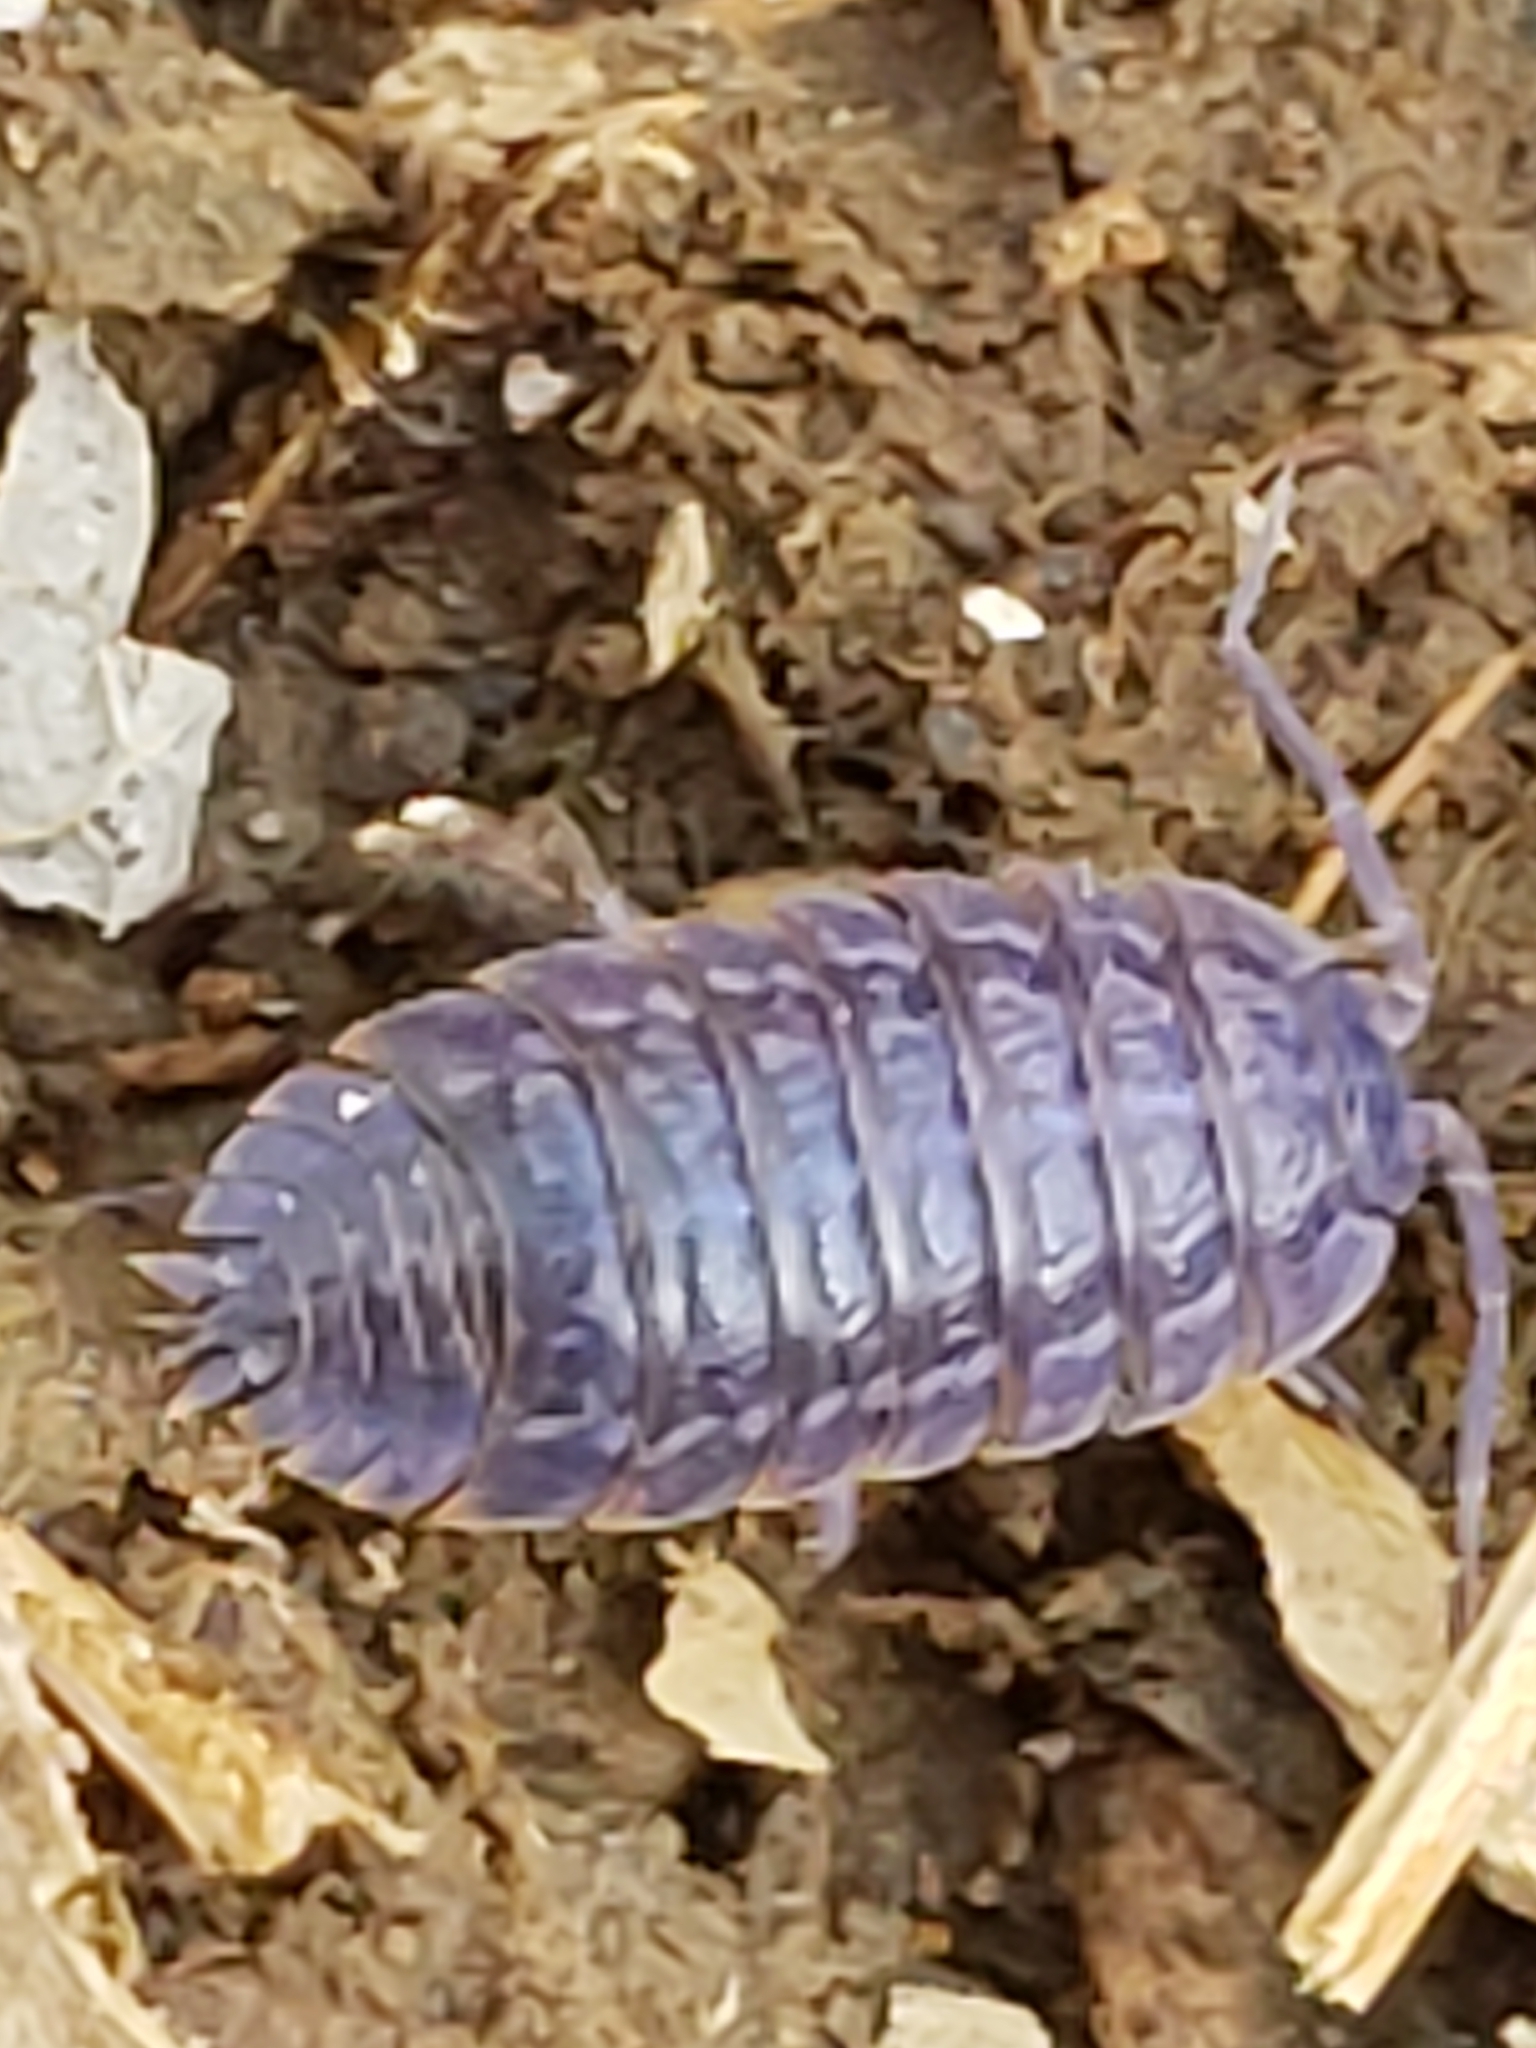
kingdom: Viruses
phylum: Nucleocytoviricota
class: Megaviricetes
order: Pimascovirales
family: Iridoviridae
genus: Iridovirus
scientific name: Iridovirus Invertebrate iridescent virus 31
